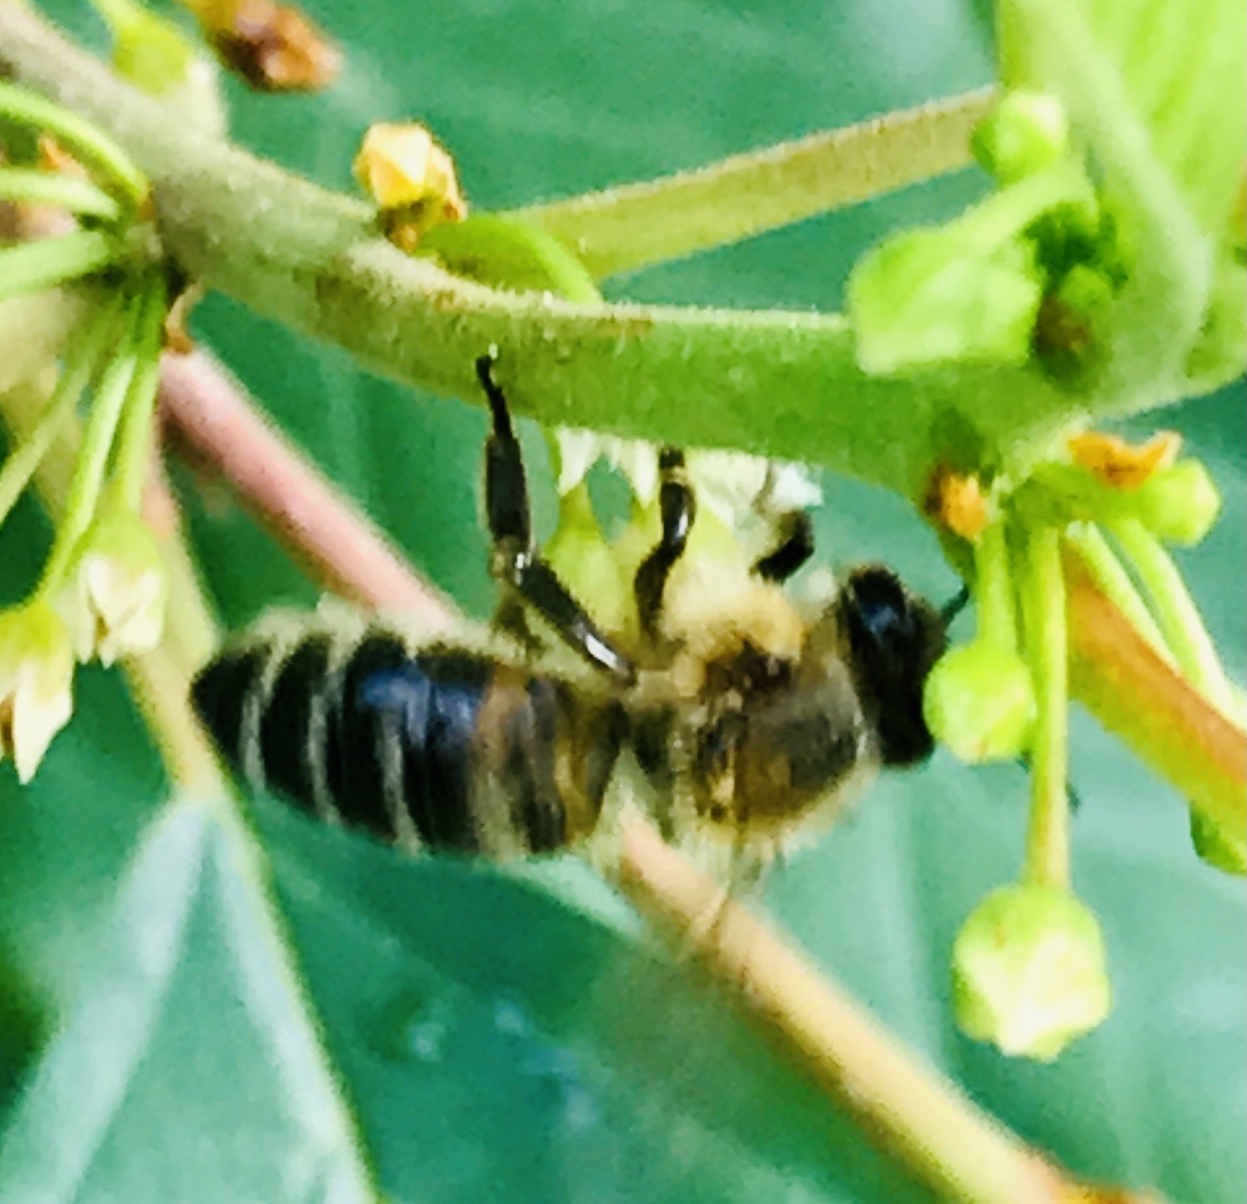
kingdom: Animalia
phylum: Arthropoda
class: Insecta
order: Hymenoptera
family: Apidae
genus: Apis
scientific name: Apis mellifera
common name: Honey bee
